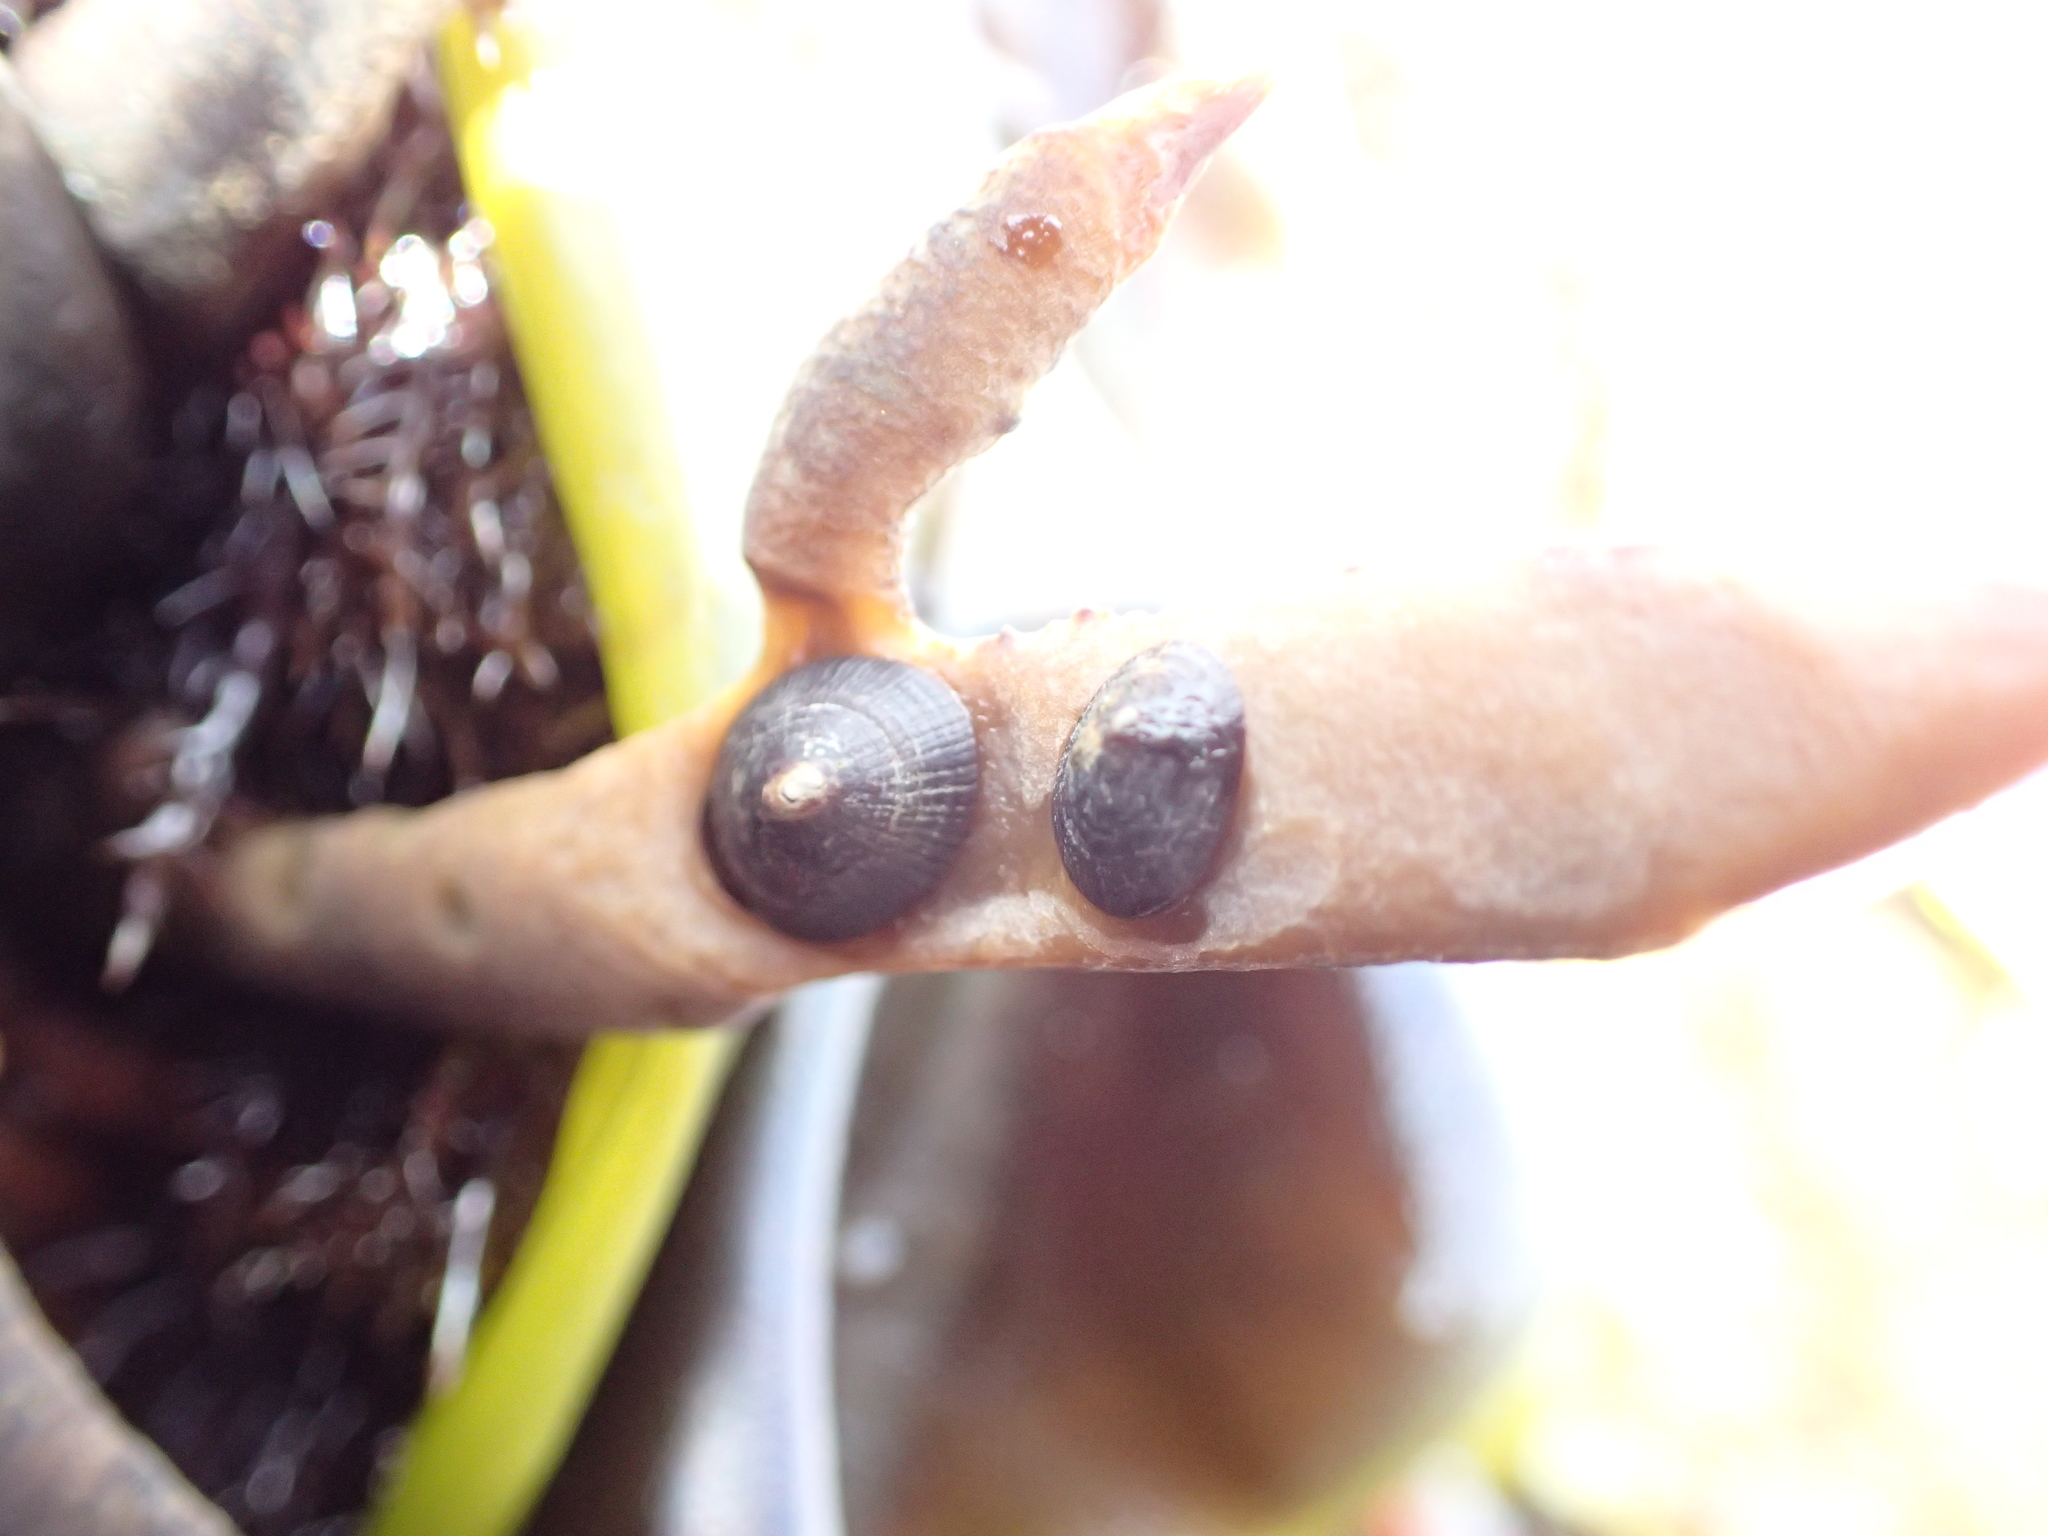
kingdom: Animalia
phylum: Mollusca
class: Gastropoda
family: Lottiidae
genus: Lottia
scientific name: Lottia pelta
